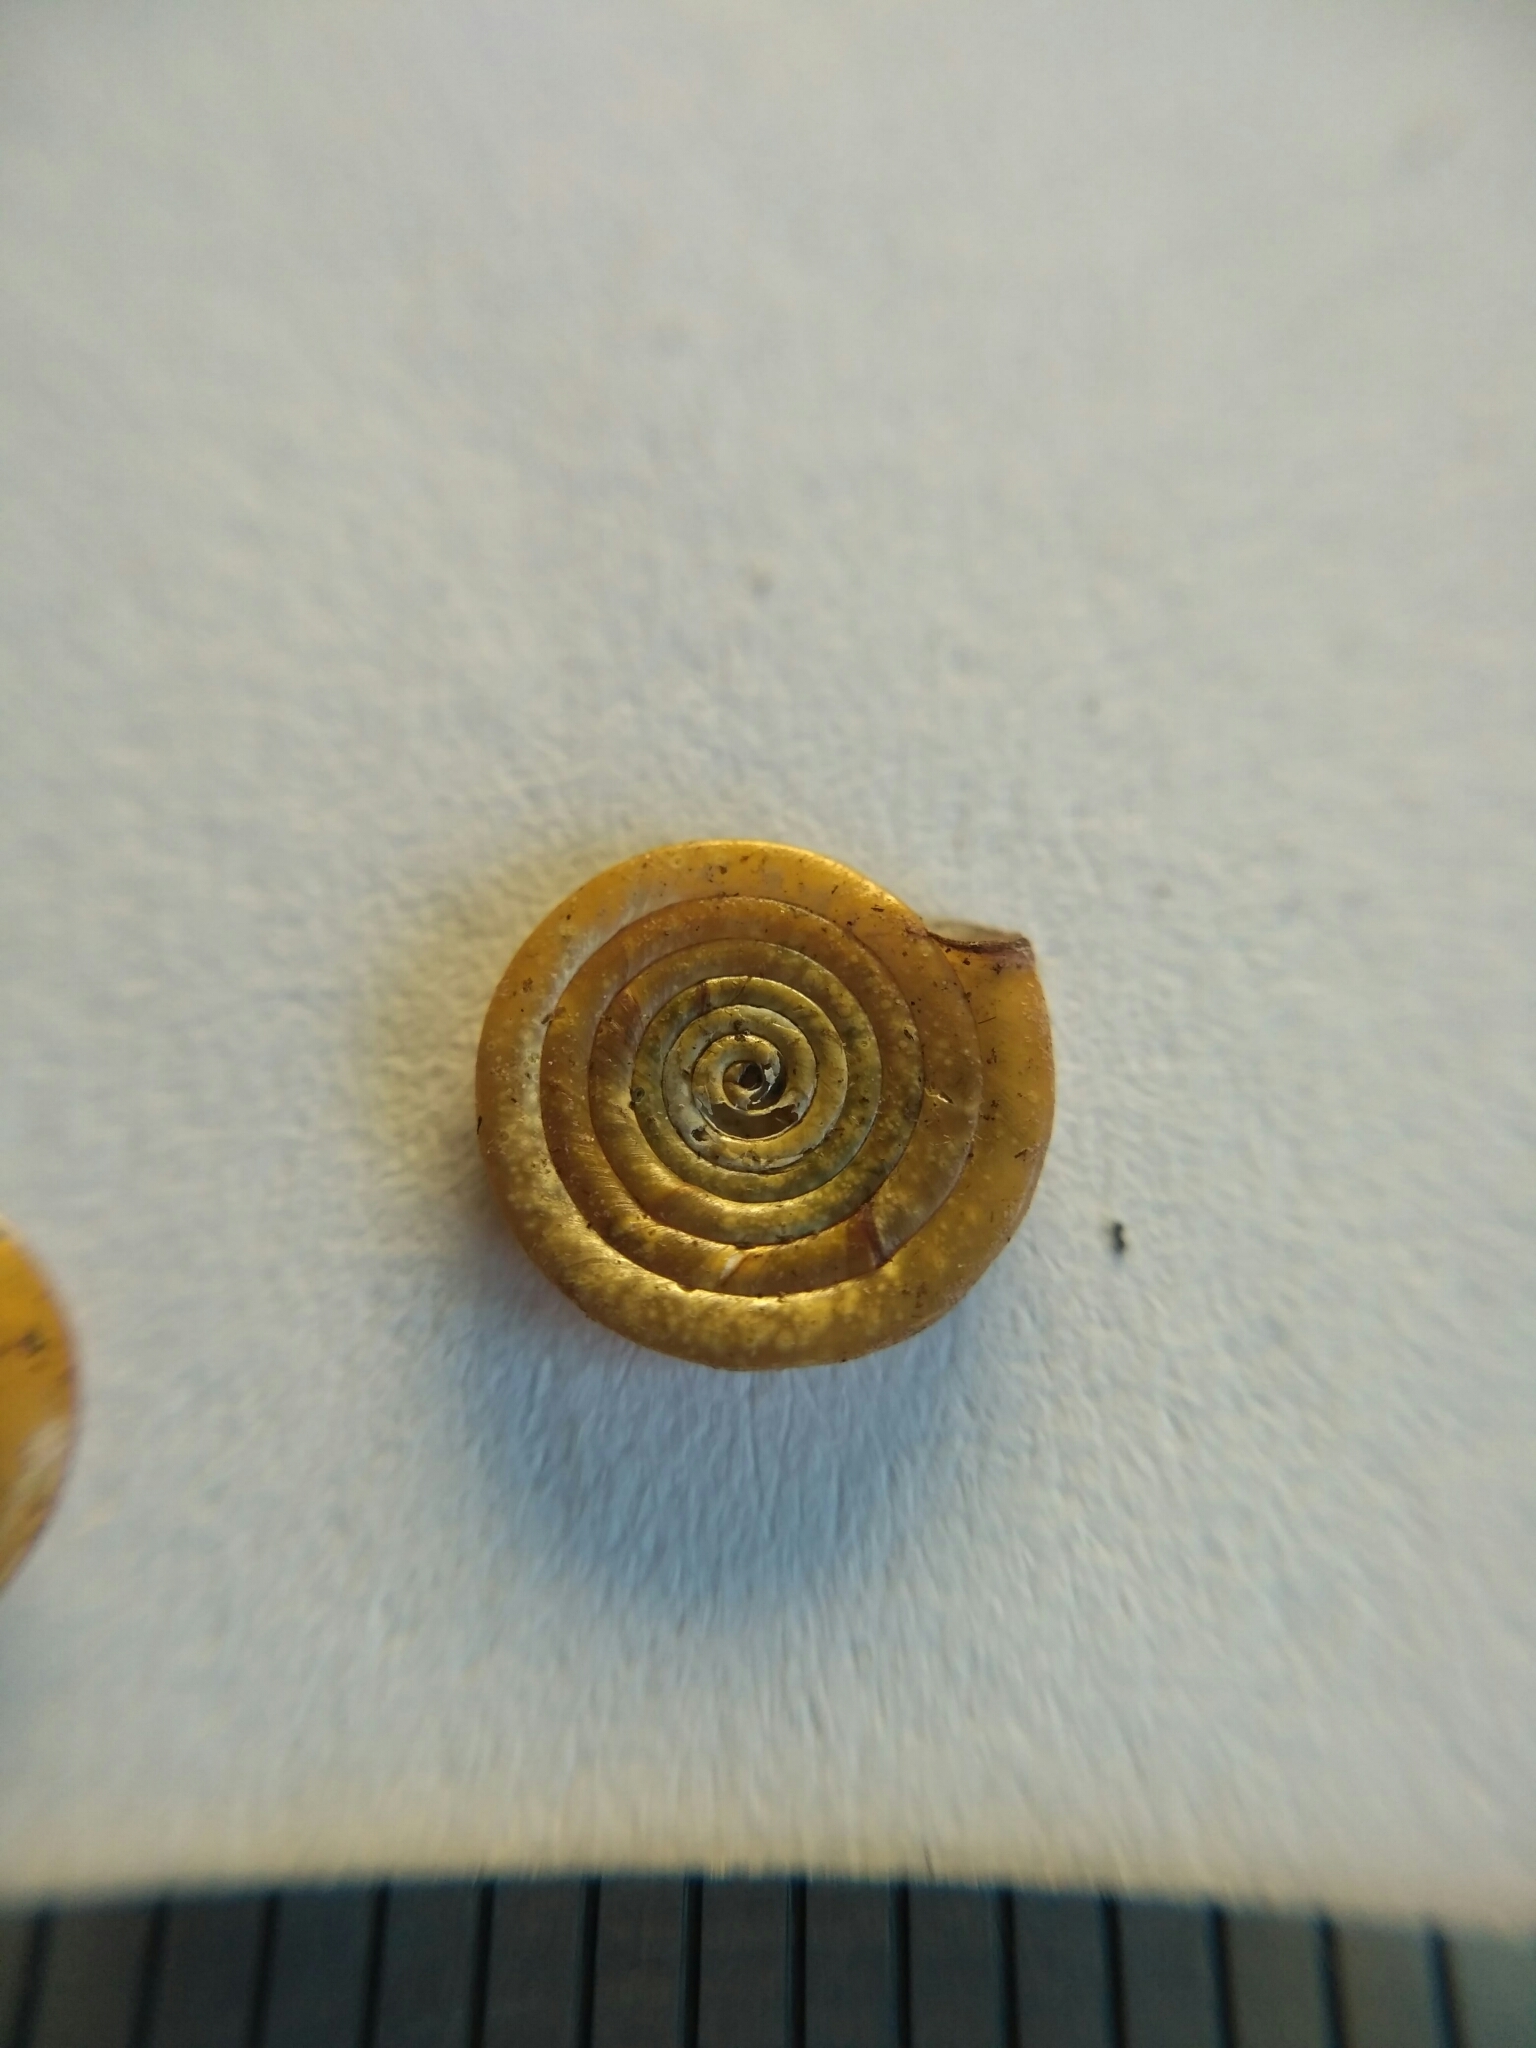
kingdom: Animalia
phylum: Mollusca
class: Gastropoda
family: Planorbidae
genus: Anisus
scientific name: Anisus septemgyratus
